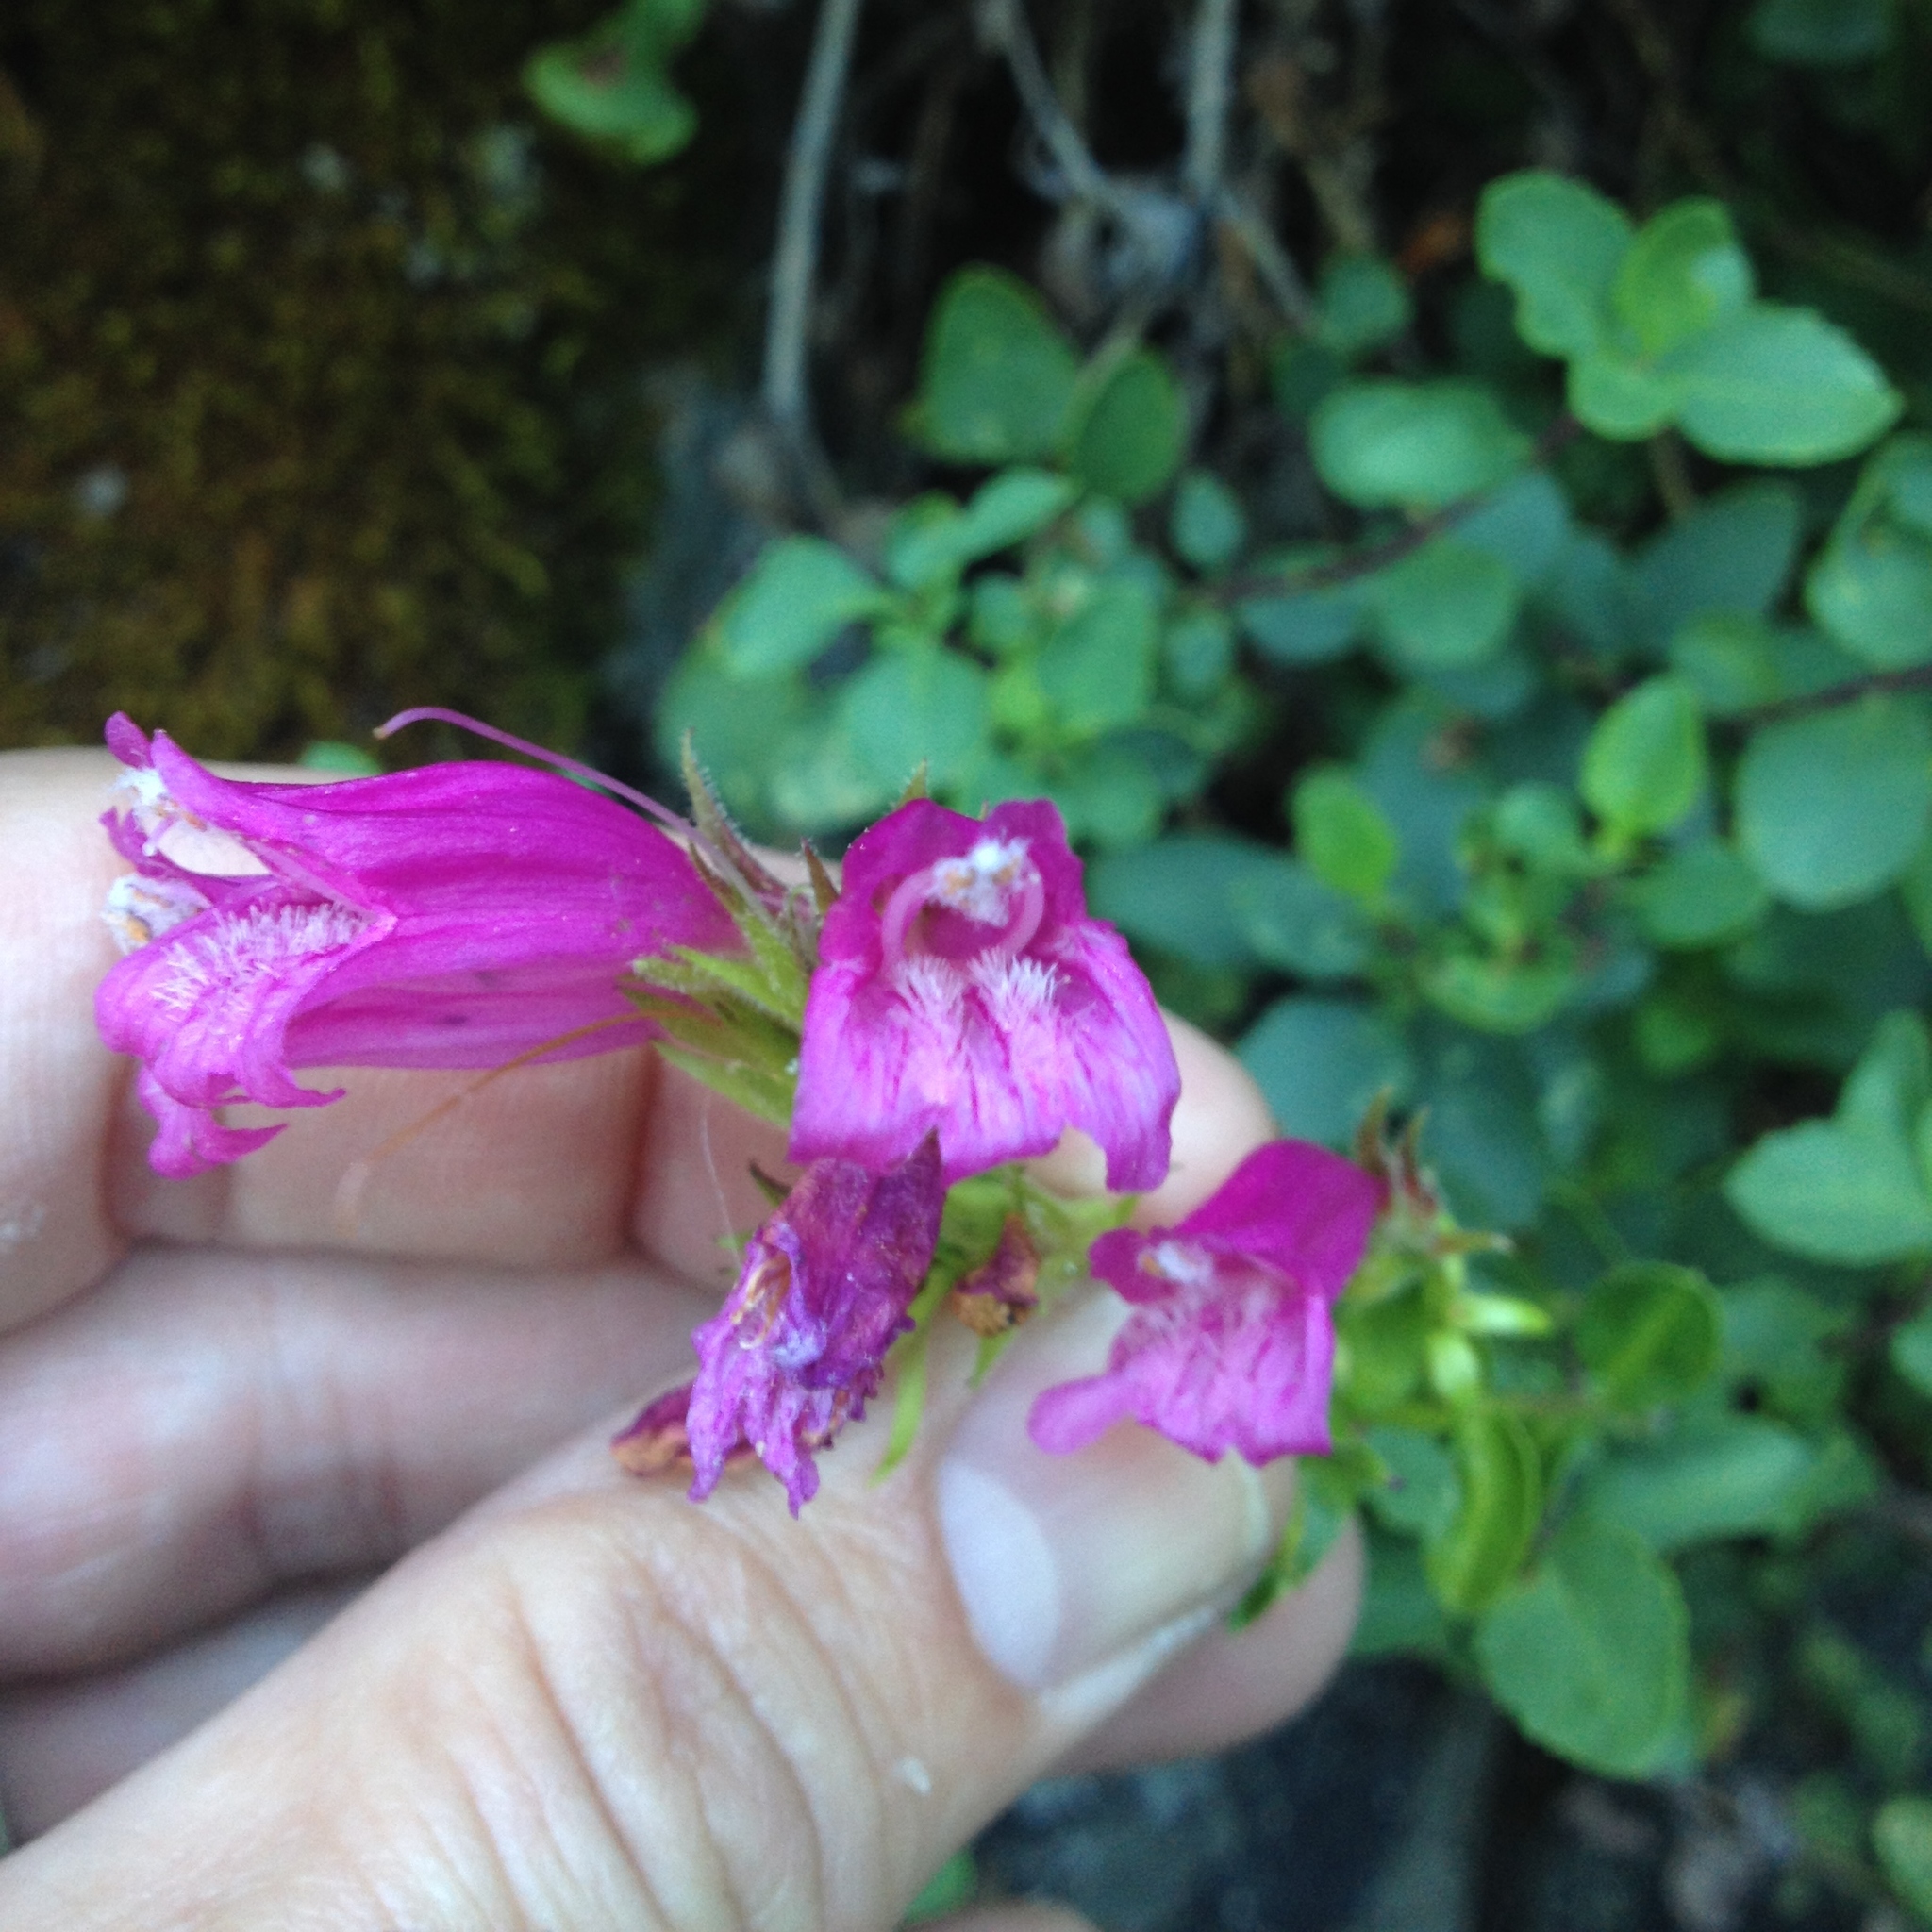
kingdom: Plantae
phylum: Tracheophyta
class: Magnoliopsida
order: Lamiales
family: Plantaginaceae
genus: Penstemon
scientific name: Penstemon newberryi
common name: Mountain-pride
